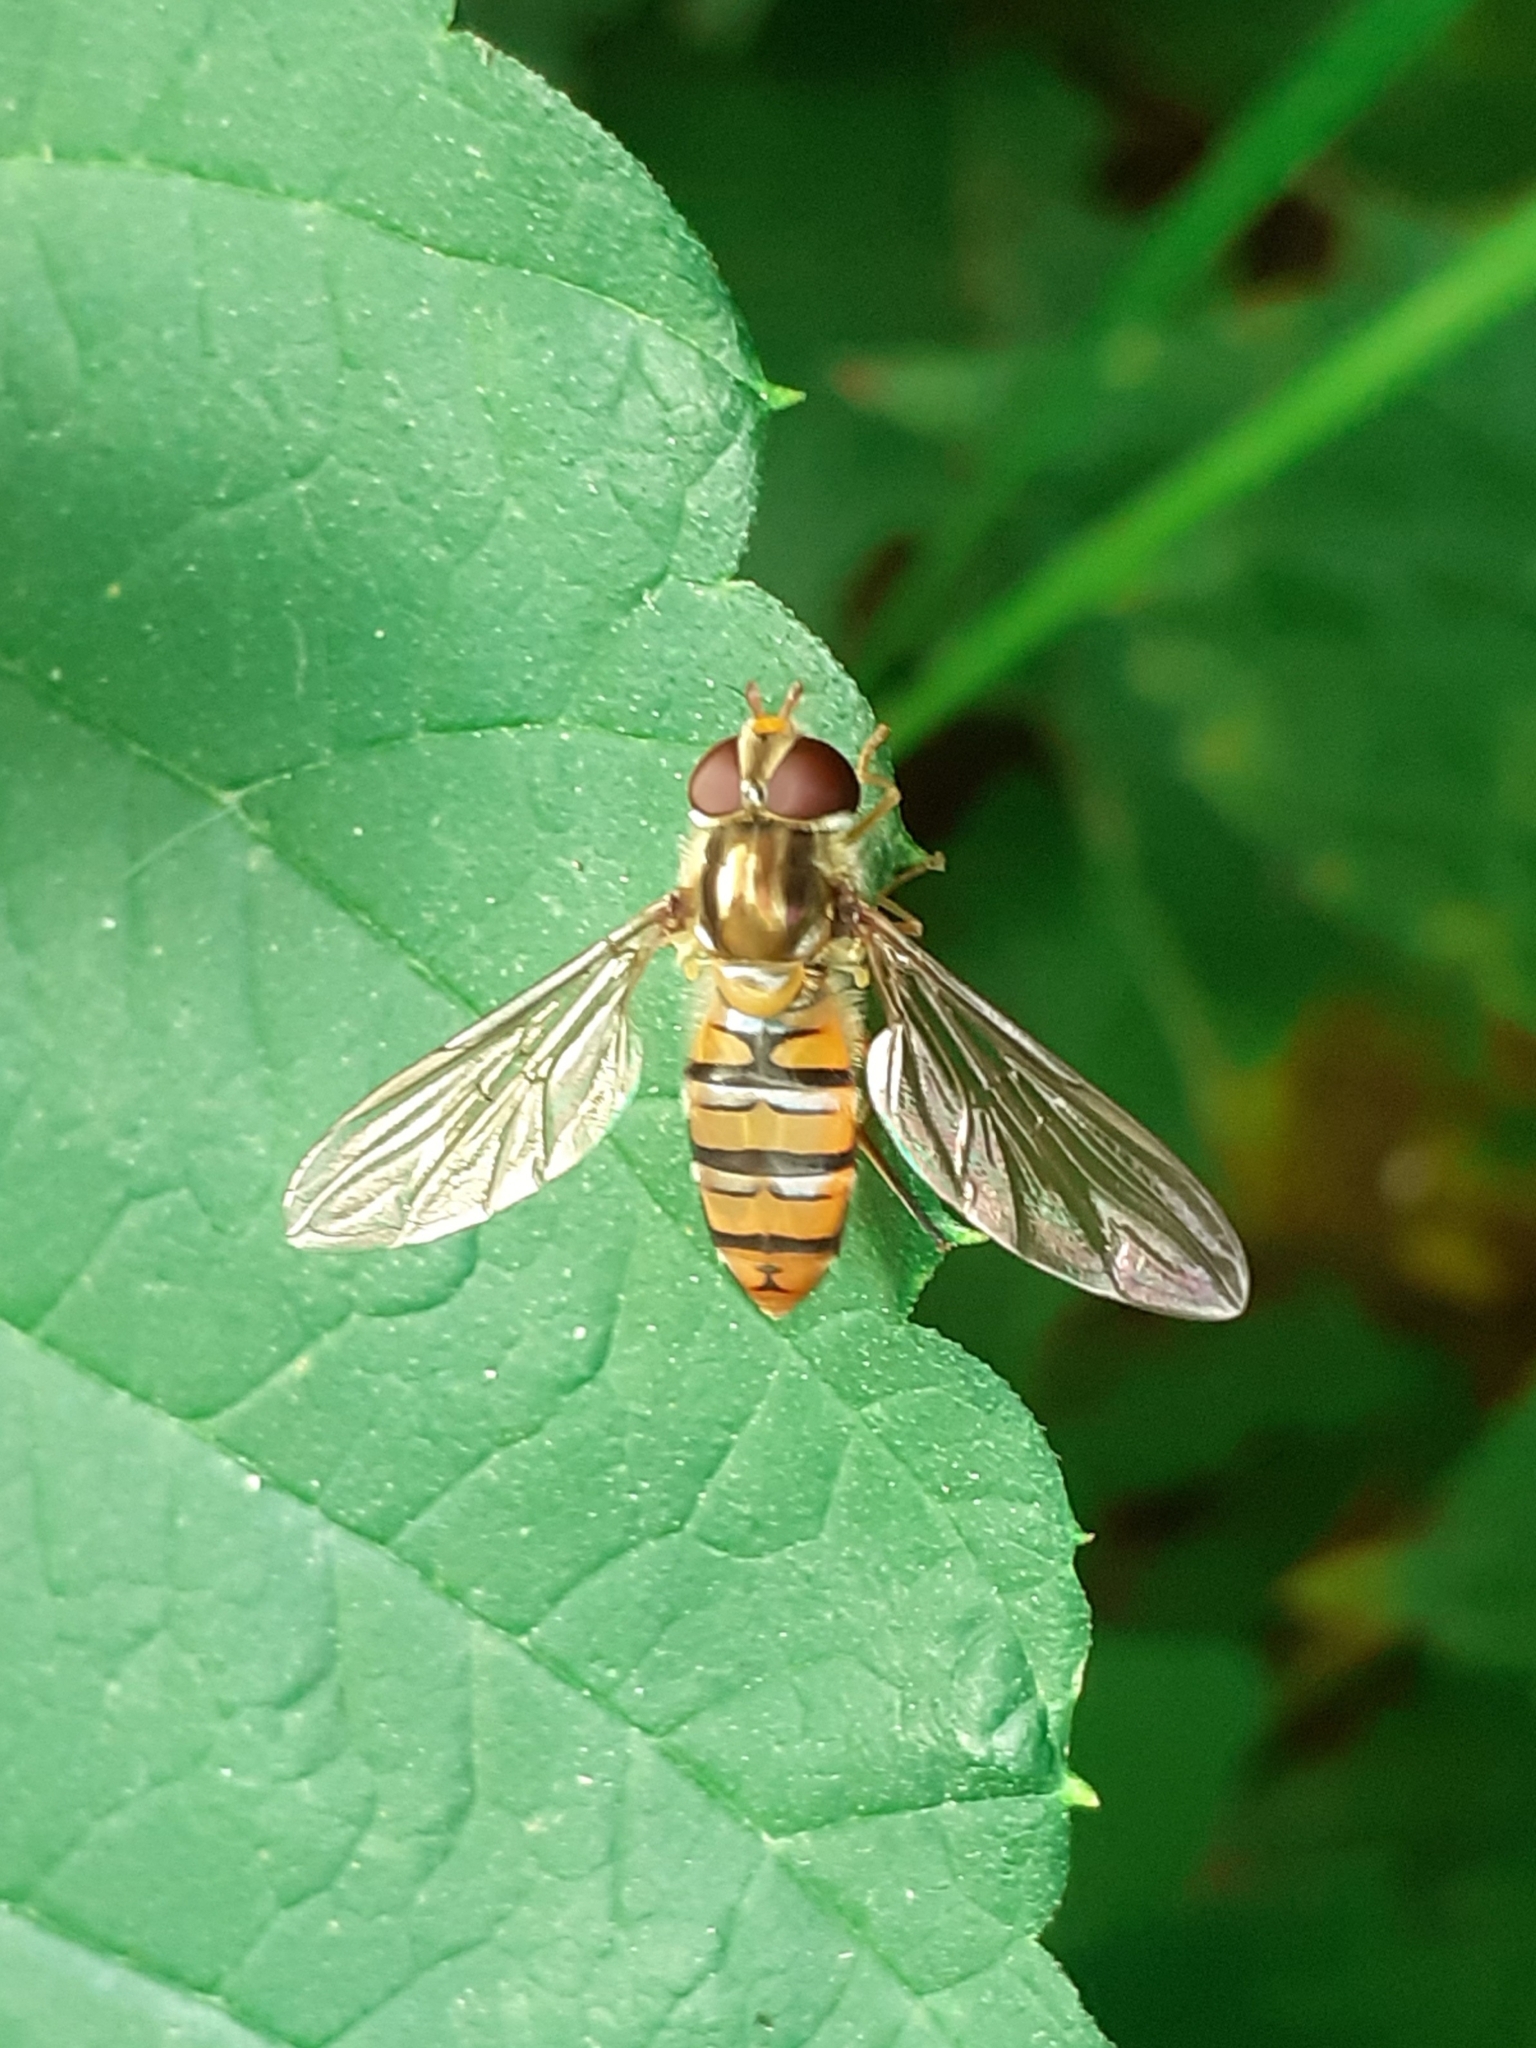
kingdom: Animalia
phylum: Arthropoda
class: Insecta
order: Diptera
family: Syrphidae
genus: Episyrphus
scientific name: Episyrphus balteatus
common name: Marmalade hoverfly
